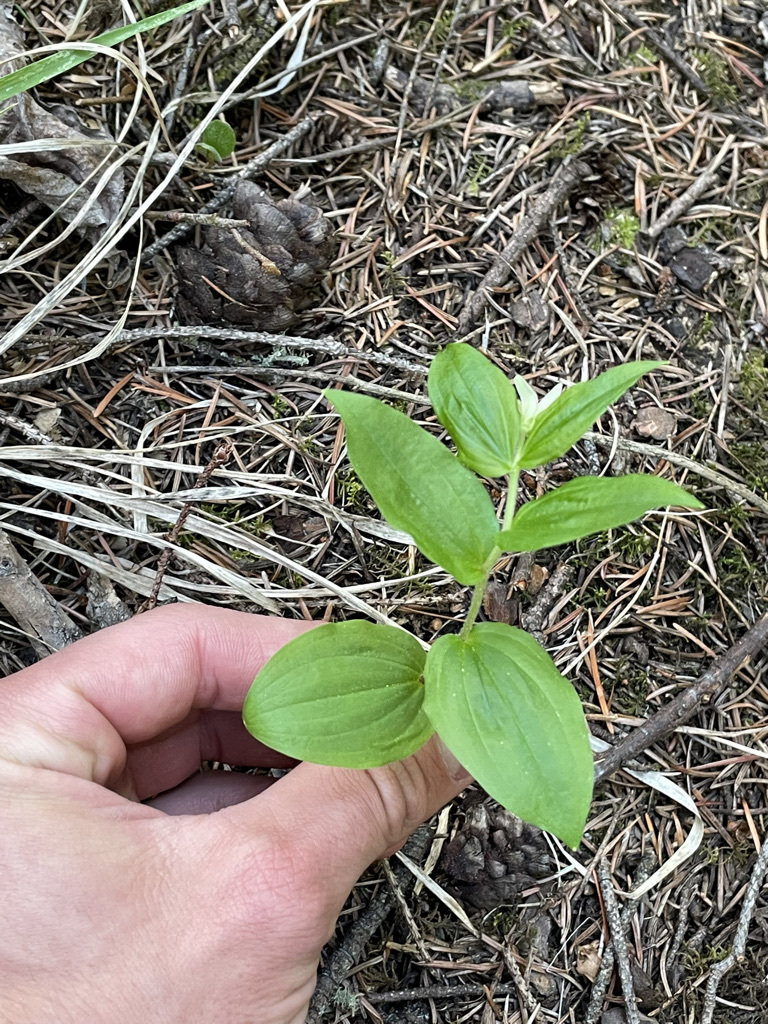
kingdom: Plantae
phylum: Tracheophyta
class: Liliopsida
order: Liliales
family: Liliaceae
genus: Prosartes
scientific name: Prosartes trachycarpa
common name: Rough-fruit fairy-bells
